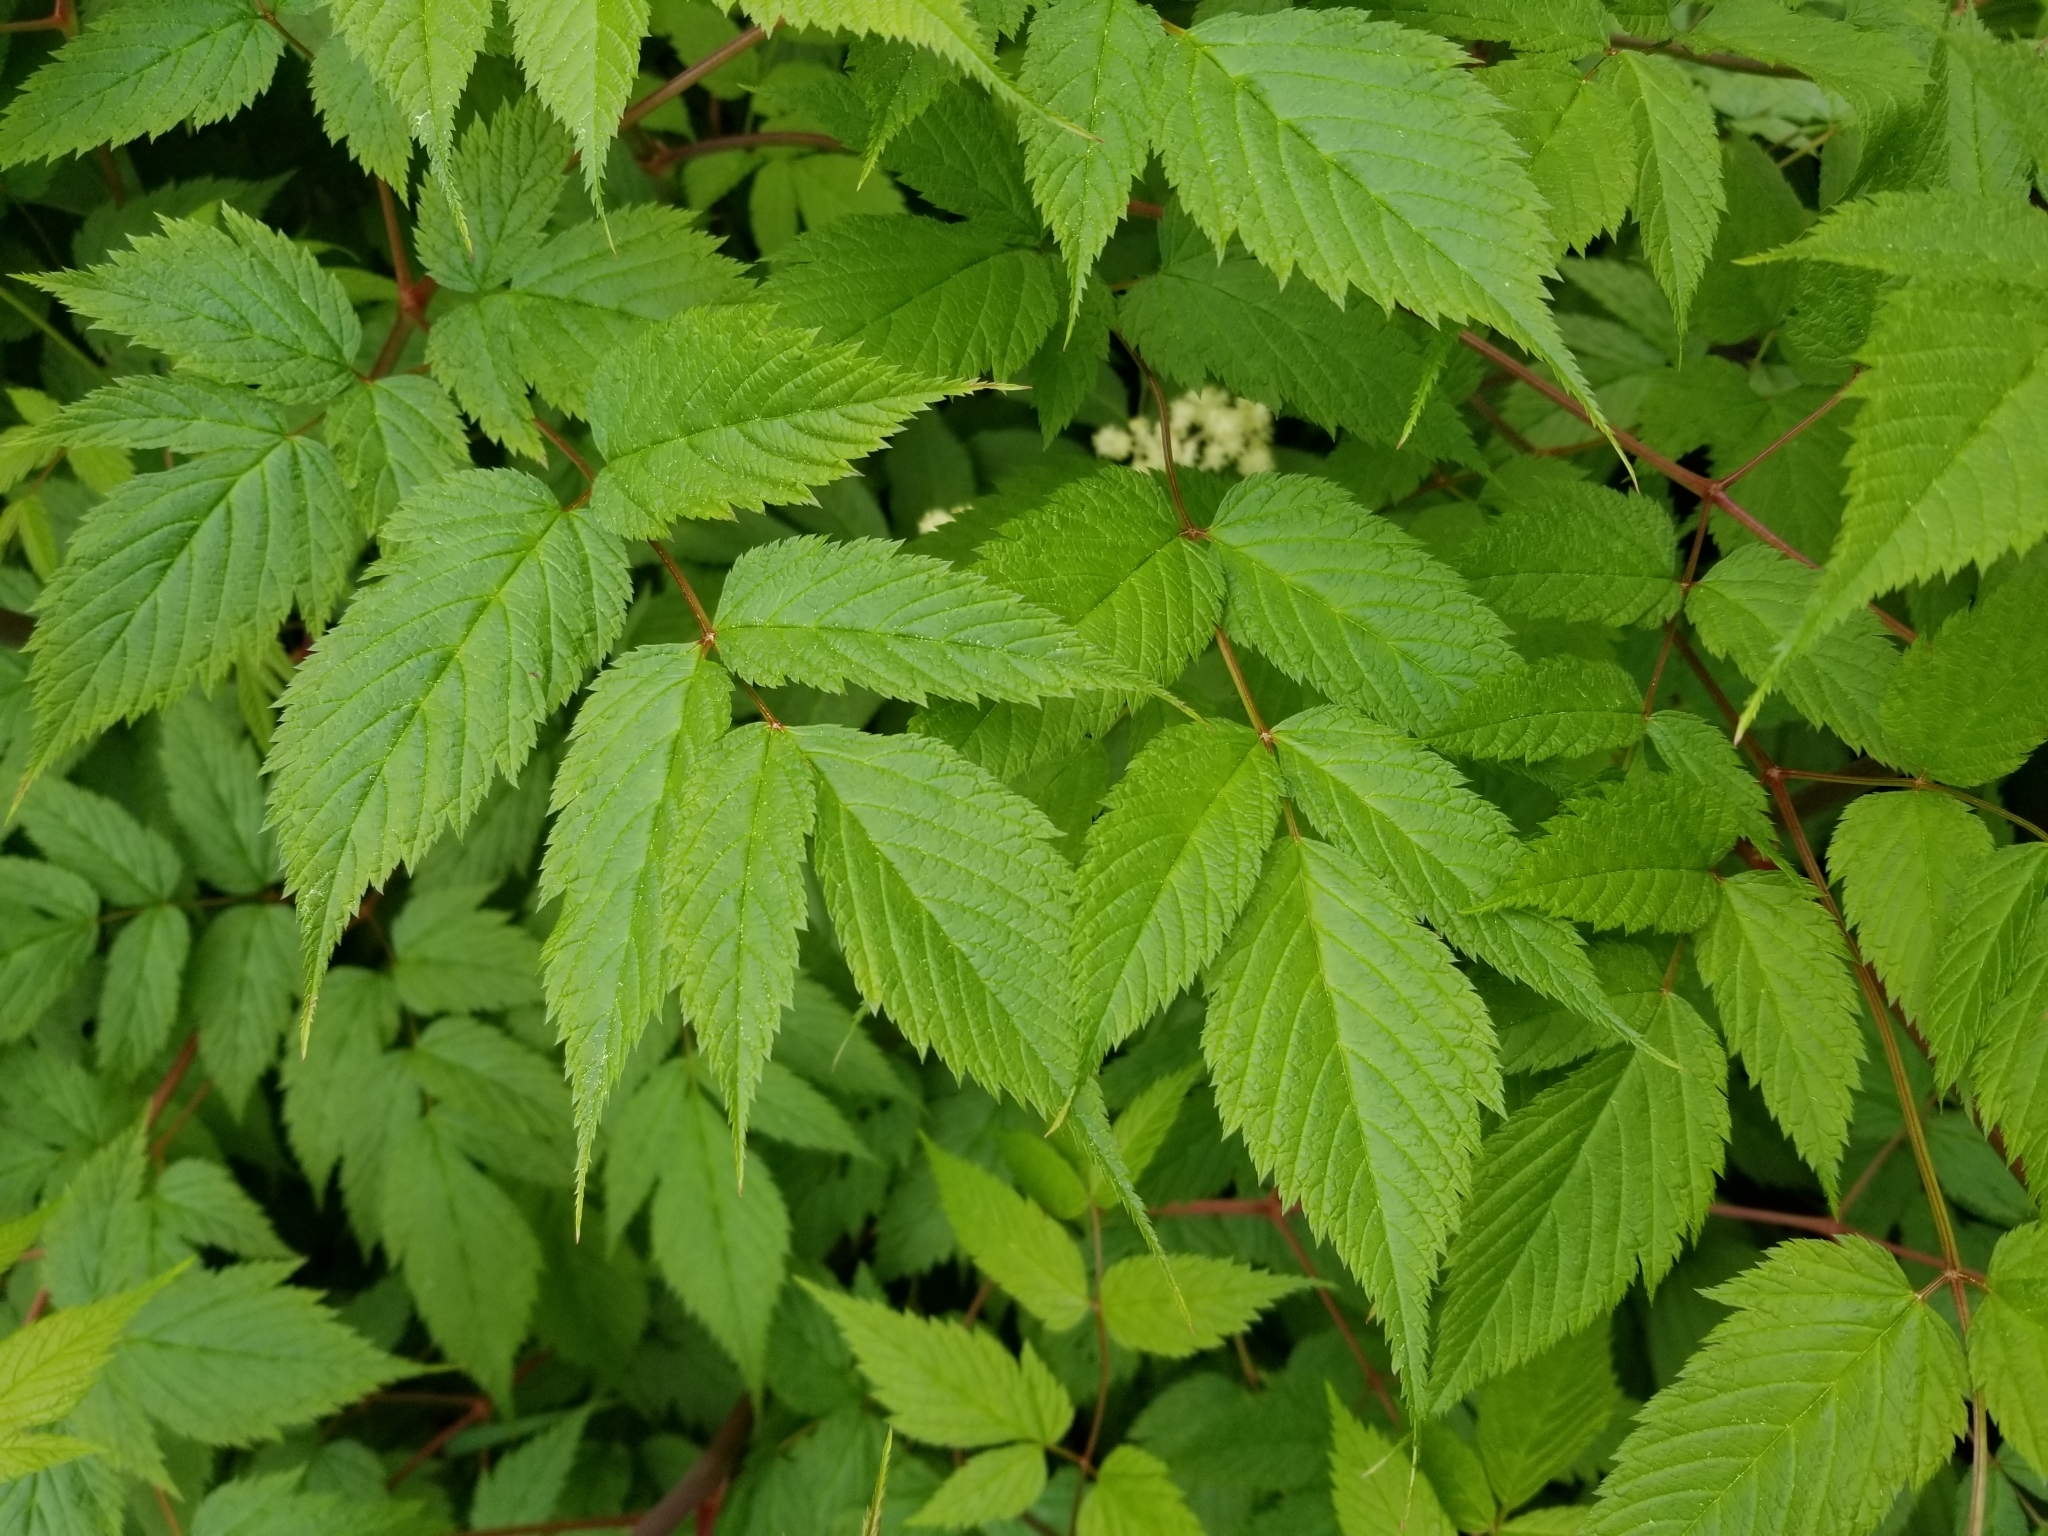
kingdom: Plantae
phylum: Tracheophyta
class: Magnoliopsida
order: Rosales
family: Rosaceae
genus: Aruncus
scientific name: Aruncus dioicus
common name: Buck's-beard
